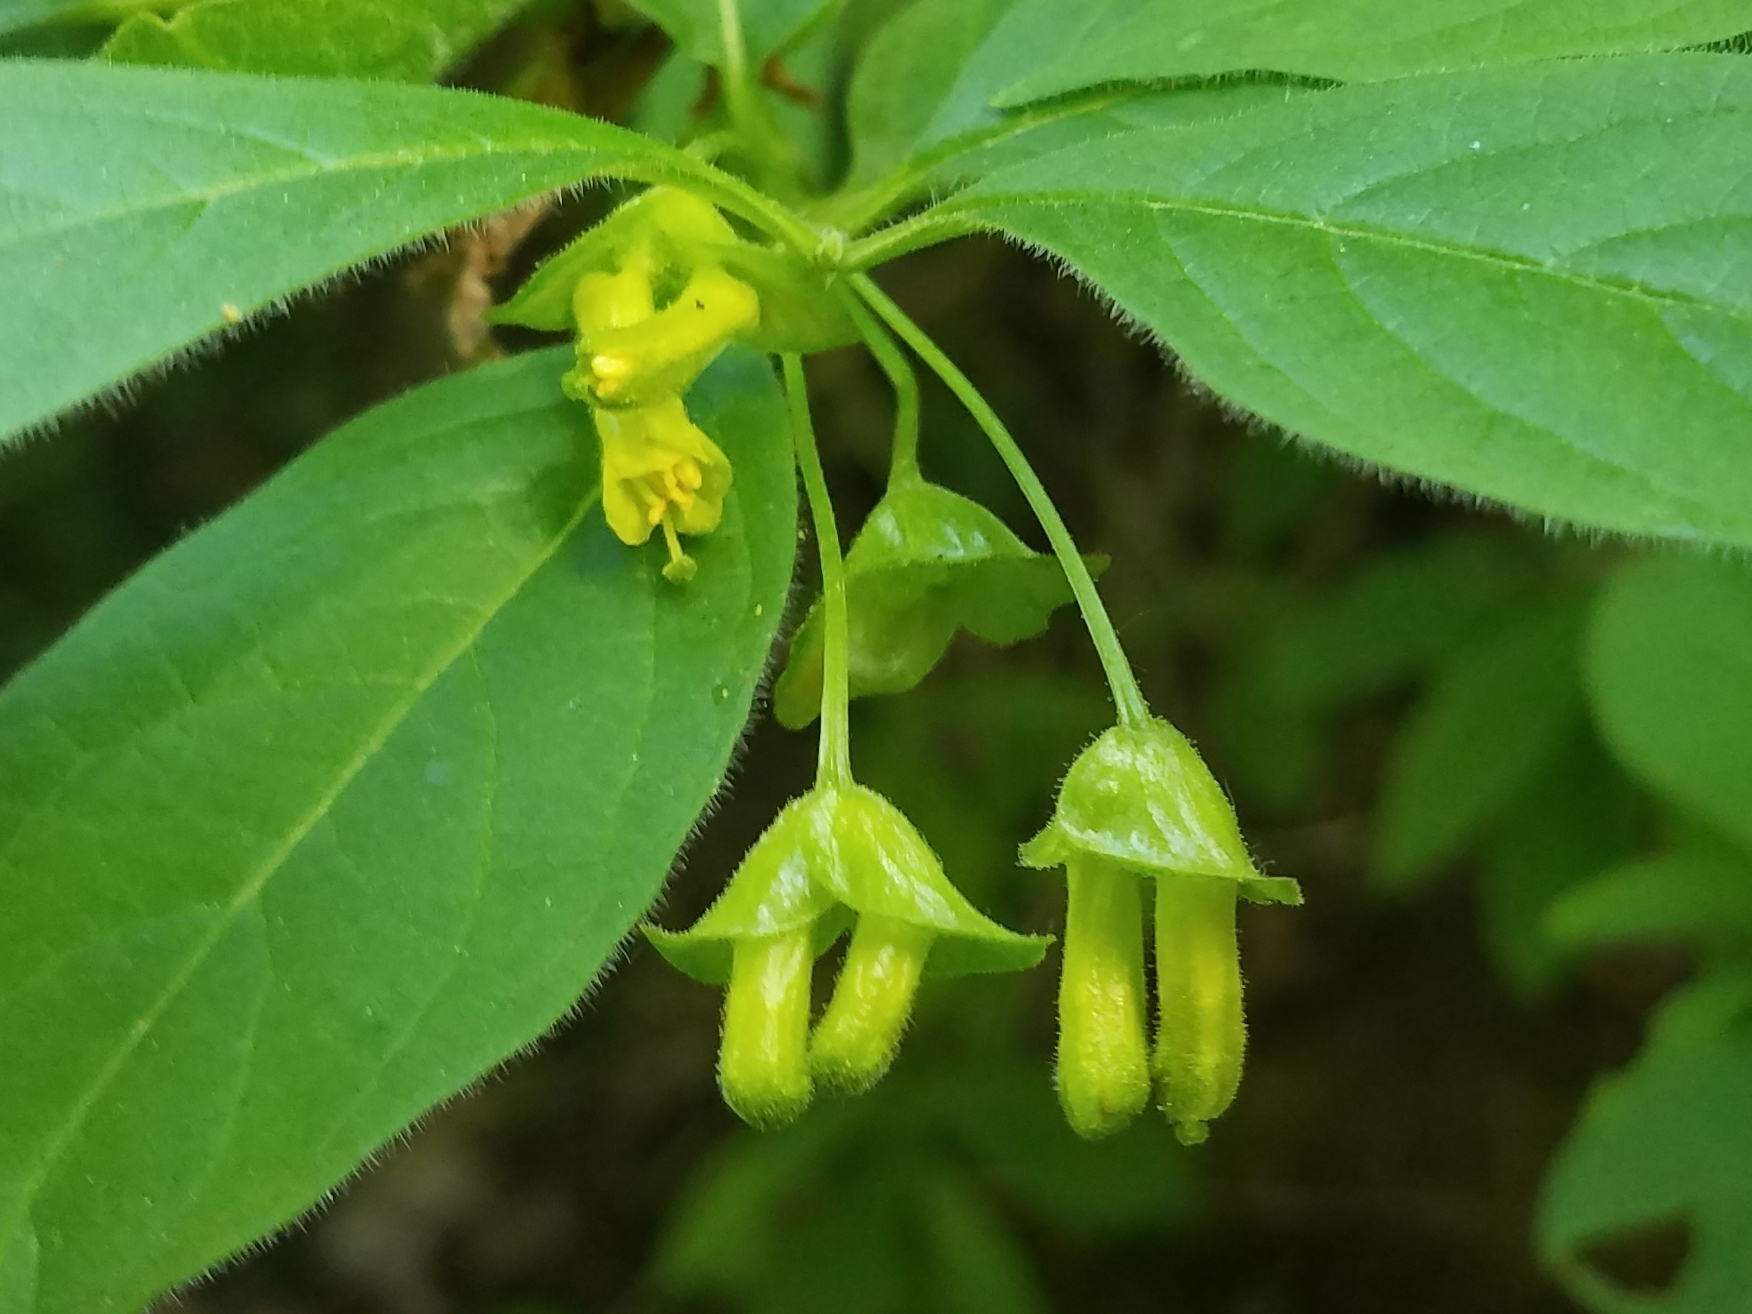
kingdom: Plantae
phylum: Tracheophyta
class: Magnoliopsida
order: Dipsacales
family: Caprifoliaceae
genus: Lonicera
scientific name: Lonicera involucrata
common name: Californian honeysuckle
